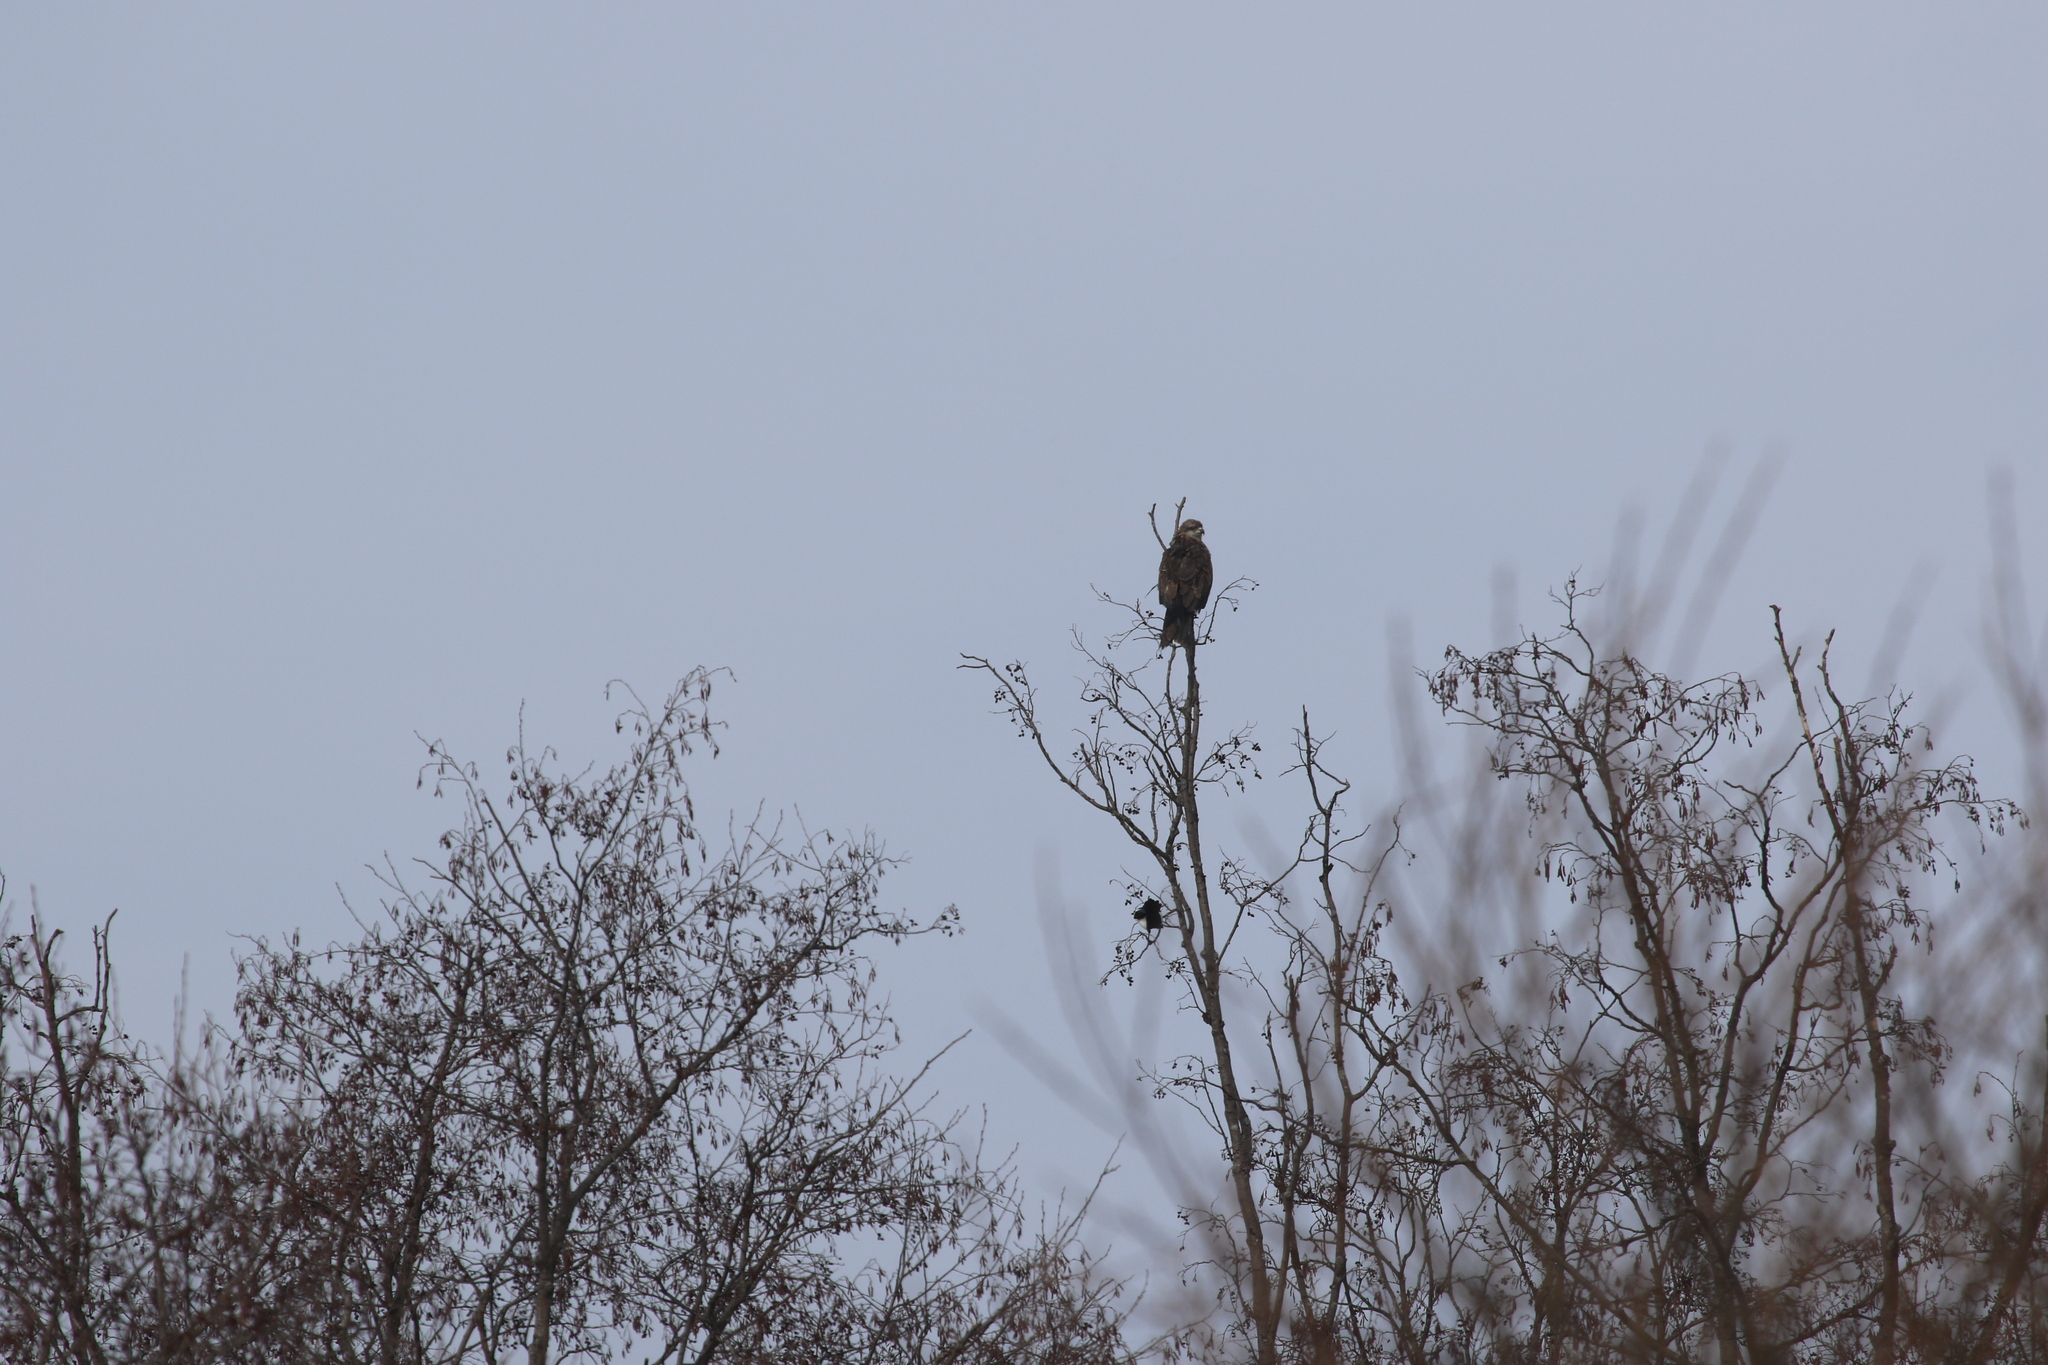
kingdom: Animalia
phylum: Chordata
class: Aves
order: Accipitriformes
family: Accipitridae
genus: Milvus
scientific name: Milvus migrans
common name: Black kite
